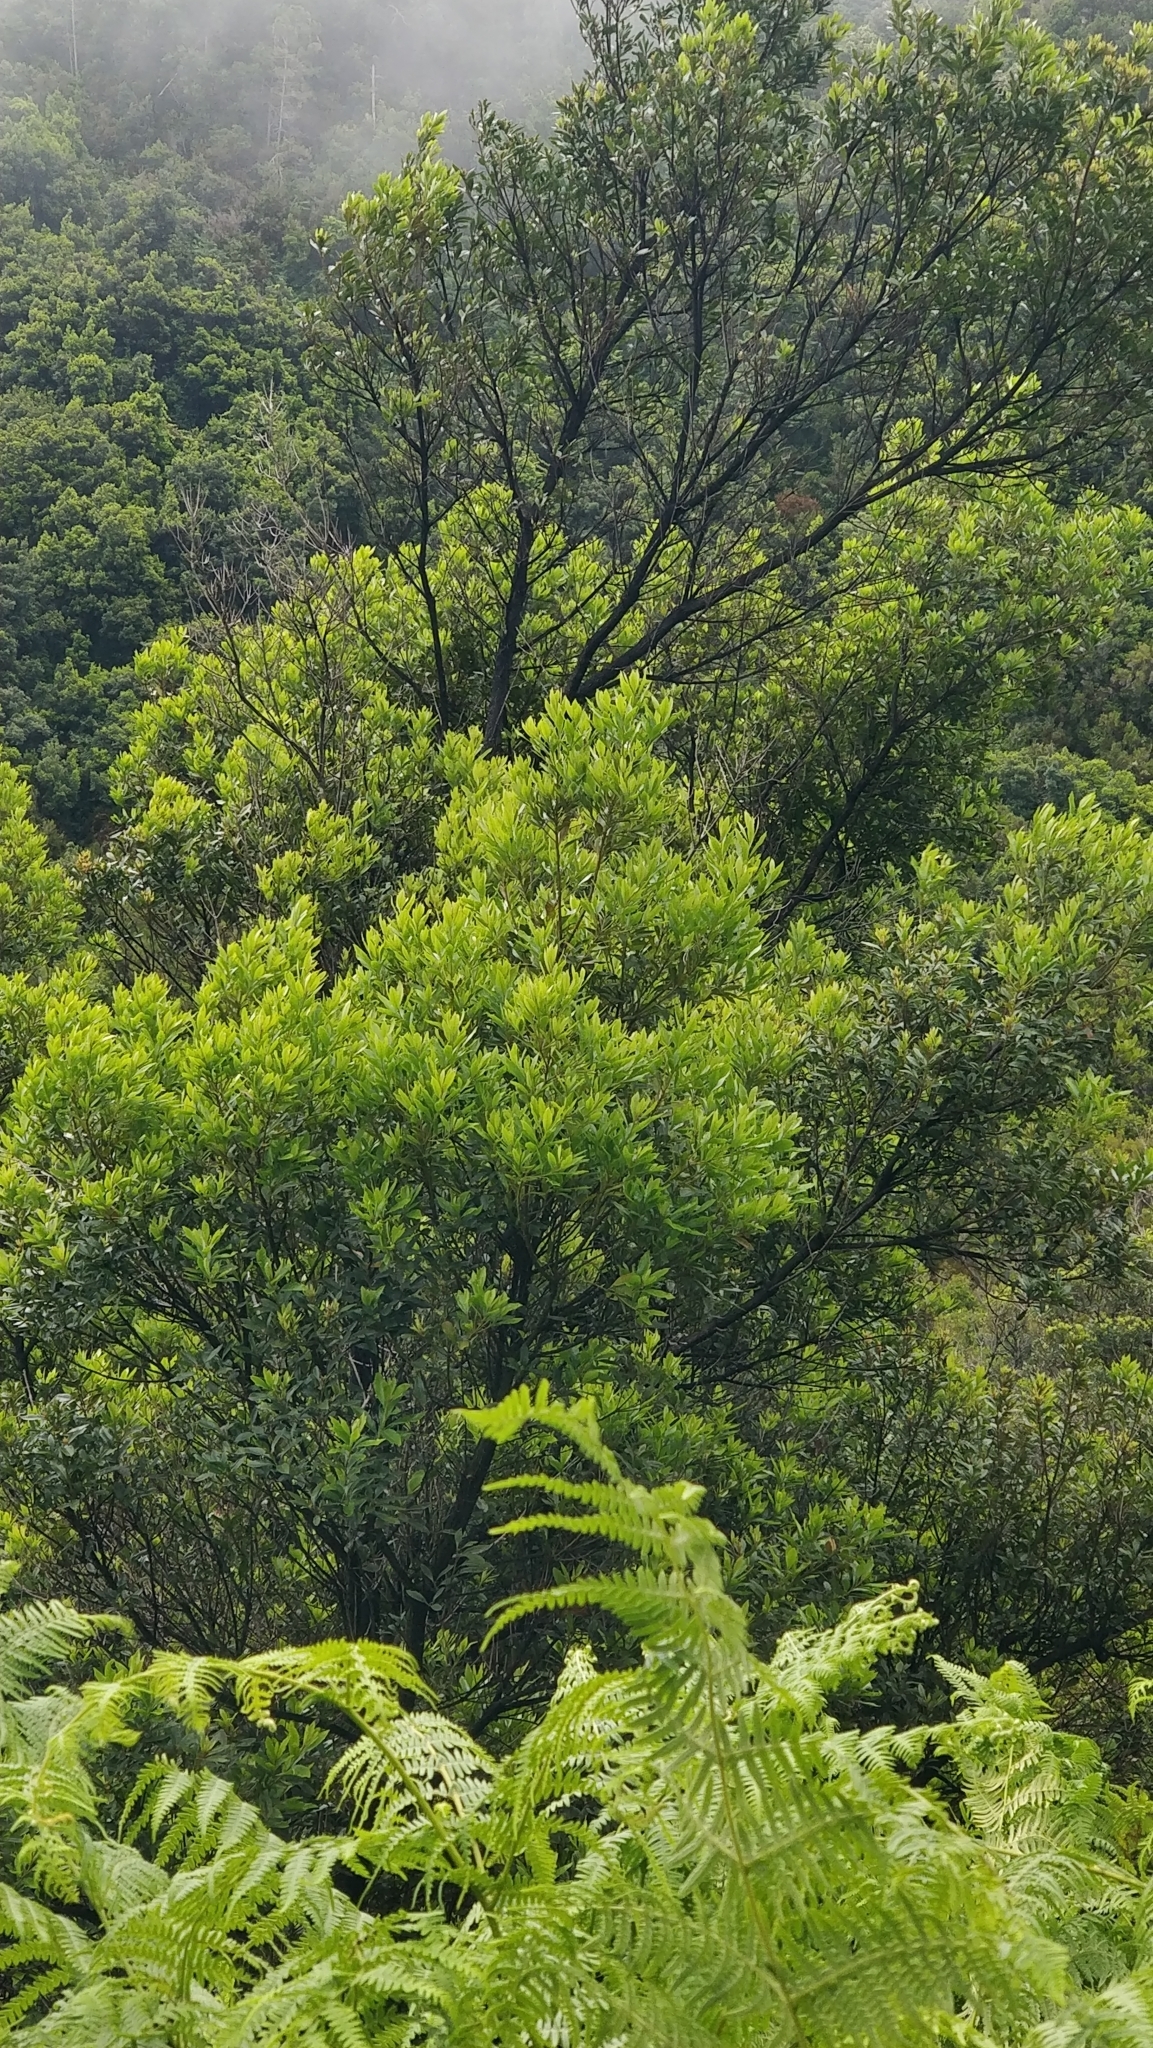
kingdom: Plantae
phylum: Tracheophyta
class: Magnoliopsida
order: Fagales
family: Myricaceae
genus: Morella
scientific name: Morella faya
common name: Firetree
